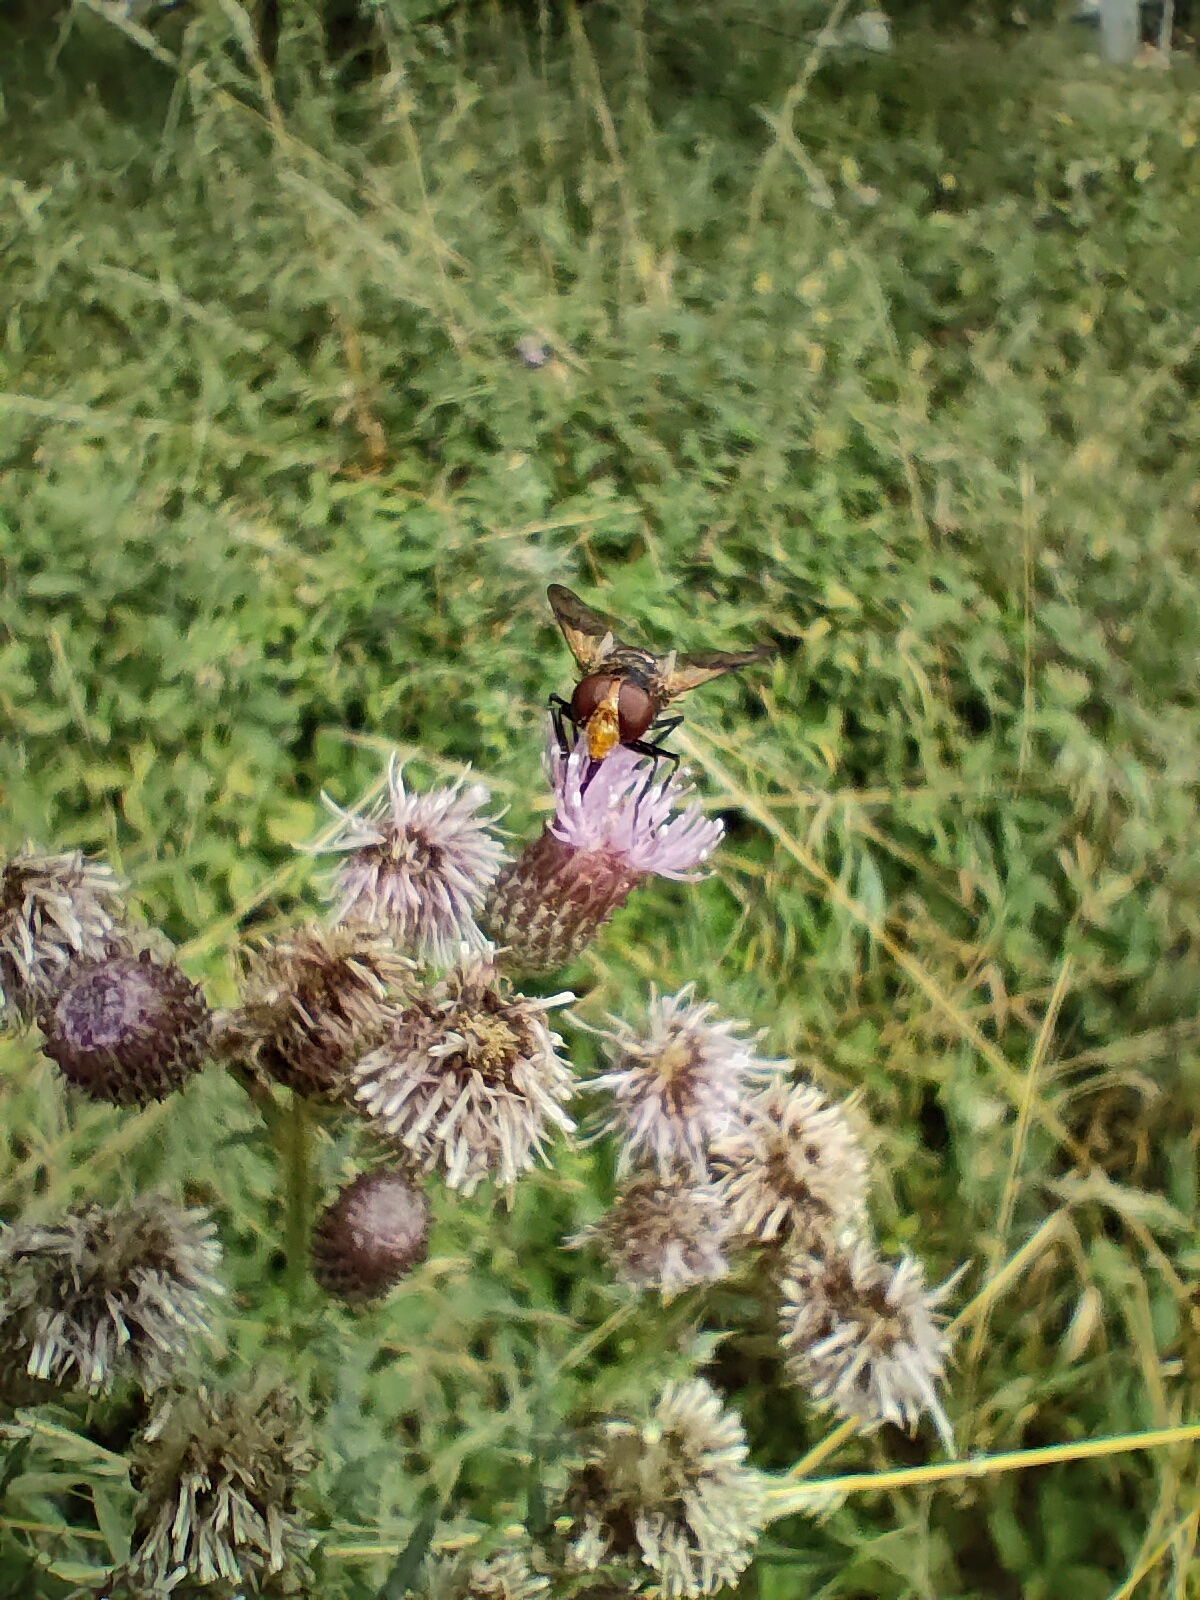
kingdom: Animalia
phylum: Arthropoda
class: Insecta
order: Diptera
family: Syrphidae
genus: Volucella
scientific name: Volucella pellucens
